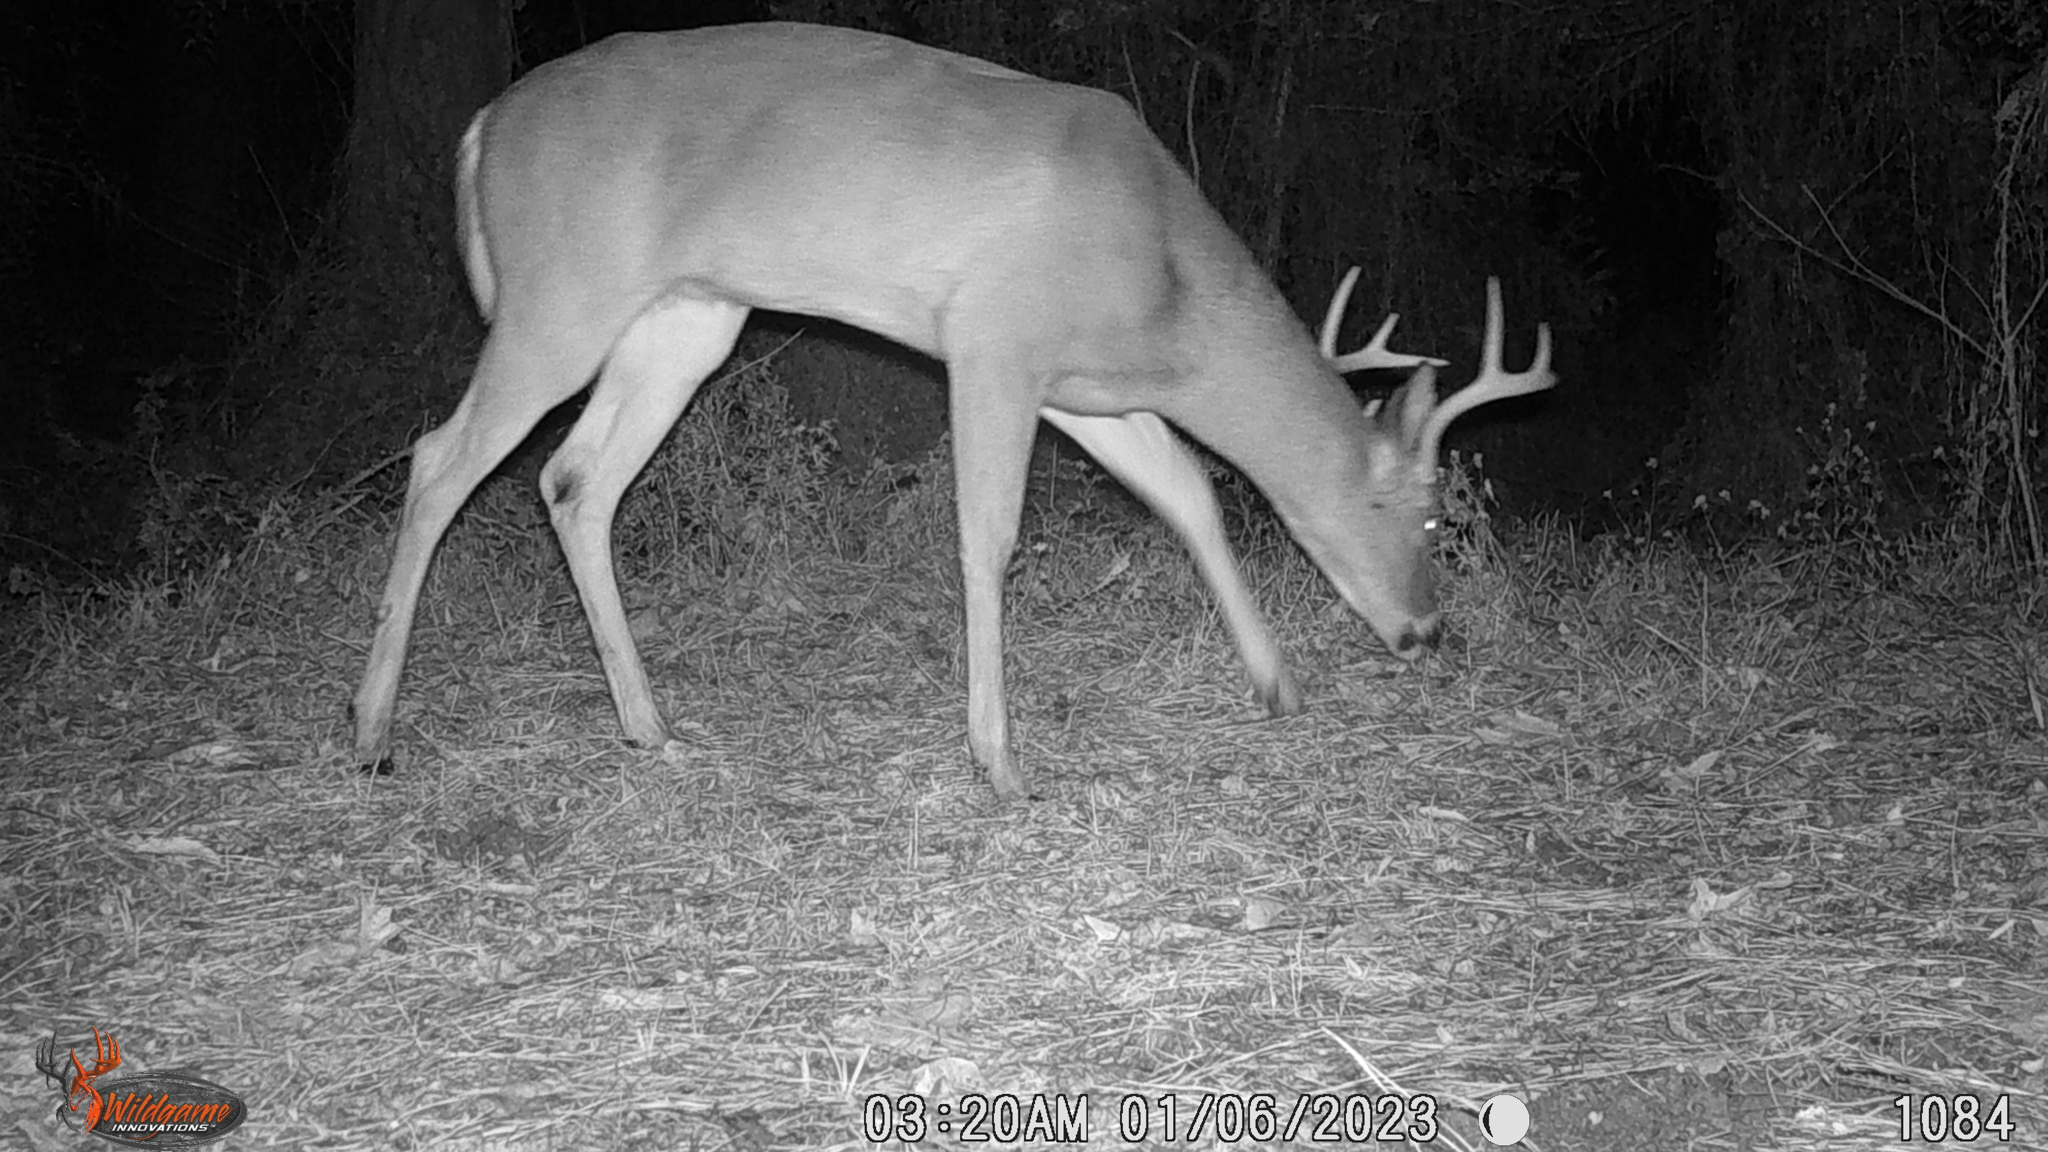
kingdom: Animalia
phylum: Chordata
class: Mammalia
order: Artiodactyla
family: Cervidae
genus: Odocoileus
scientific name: Odocoileus virginianus
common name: White-tailed deer
